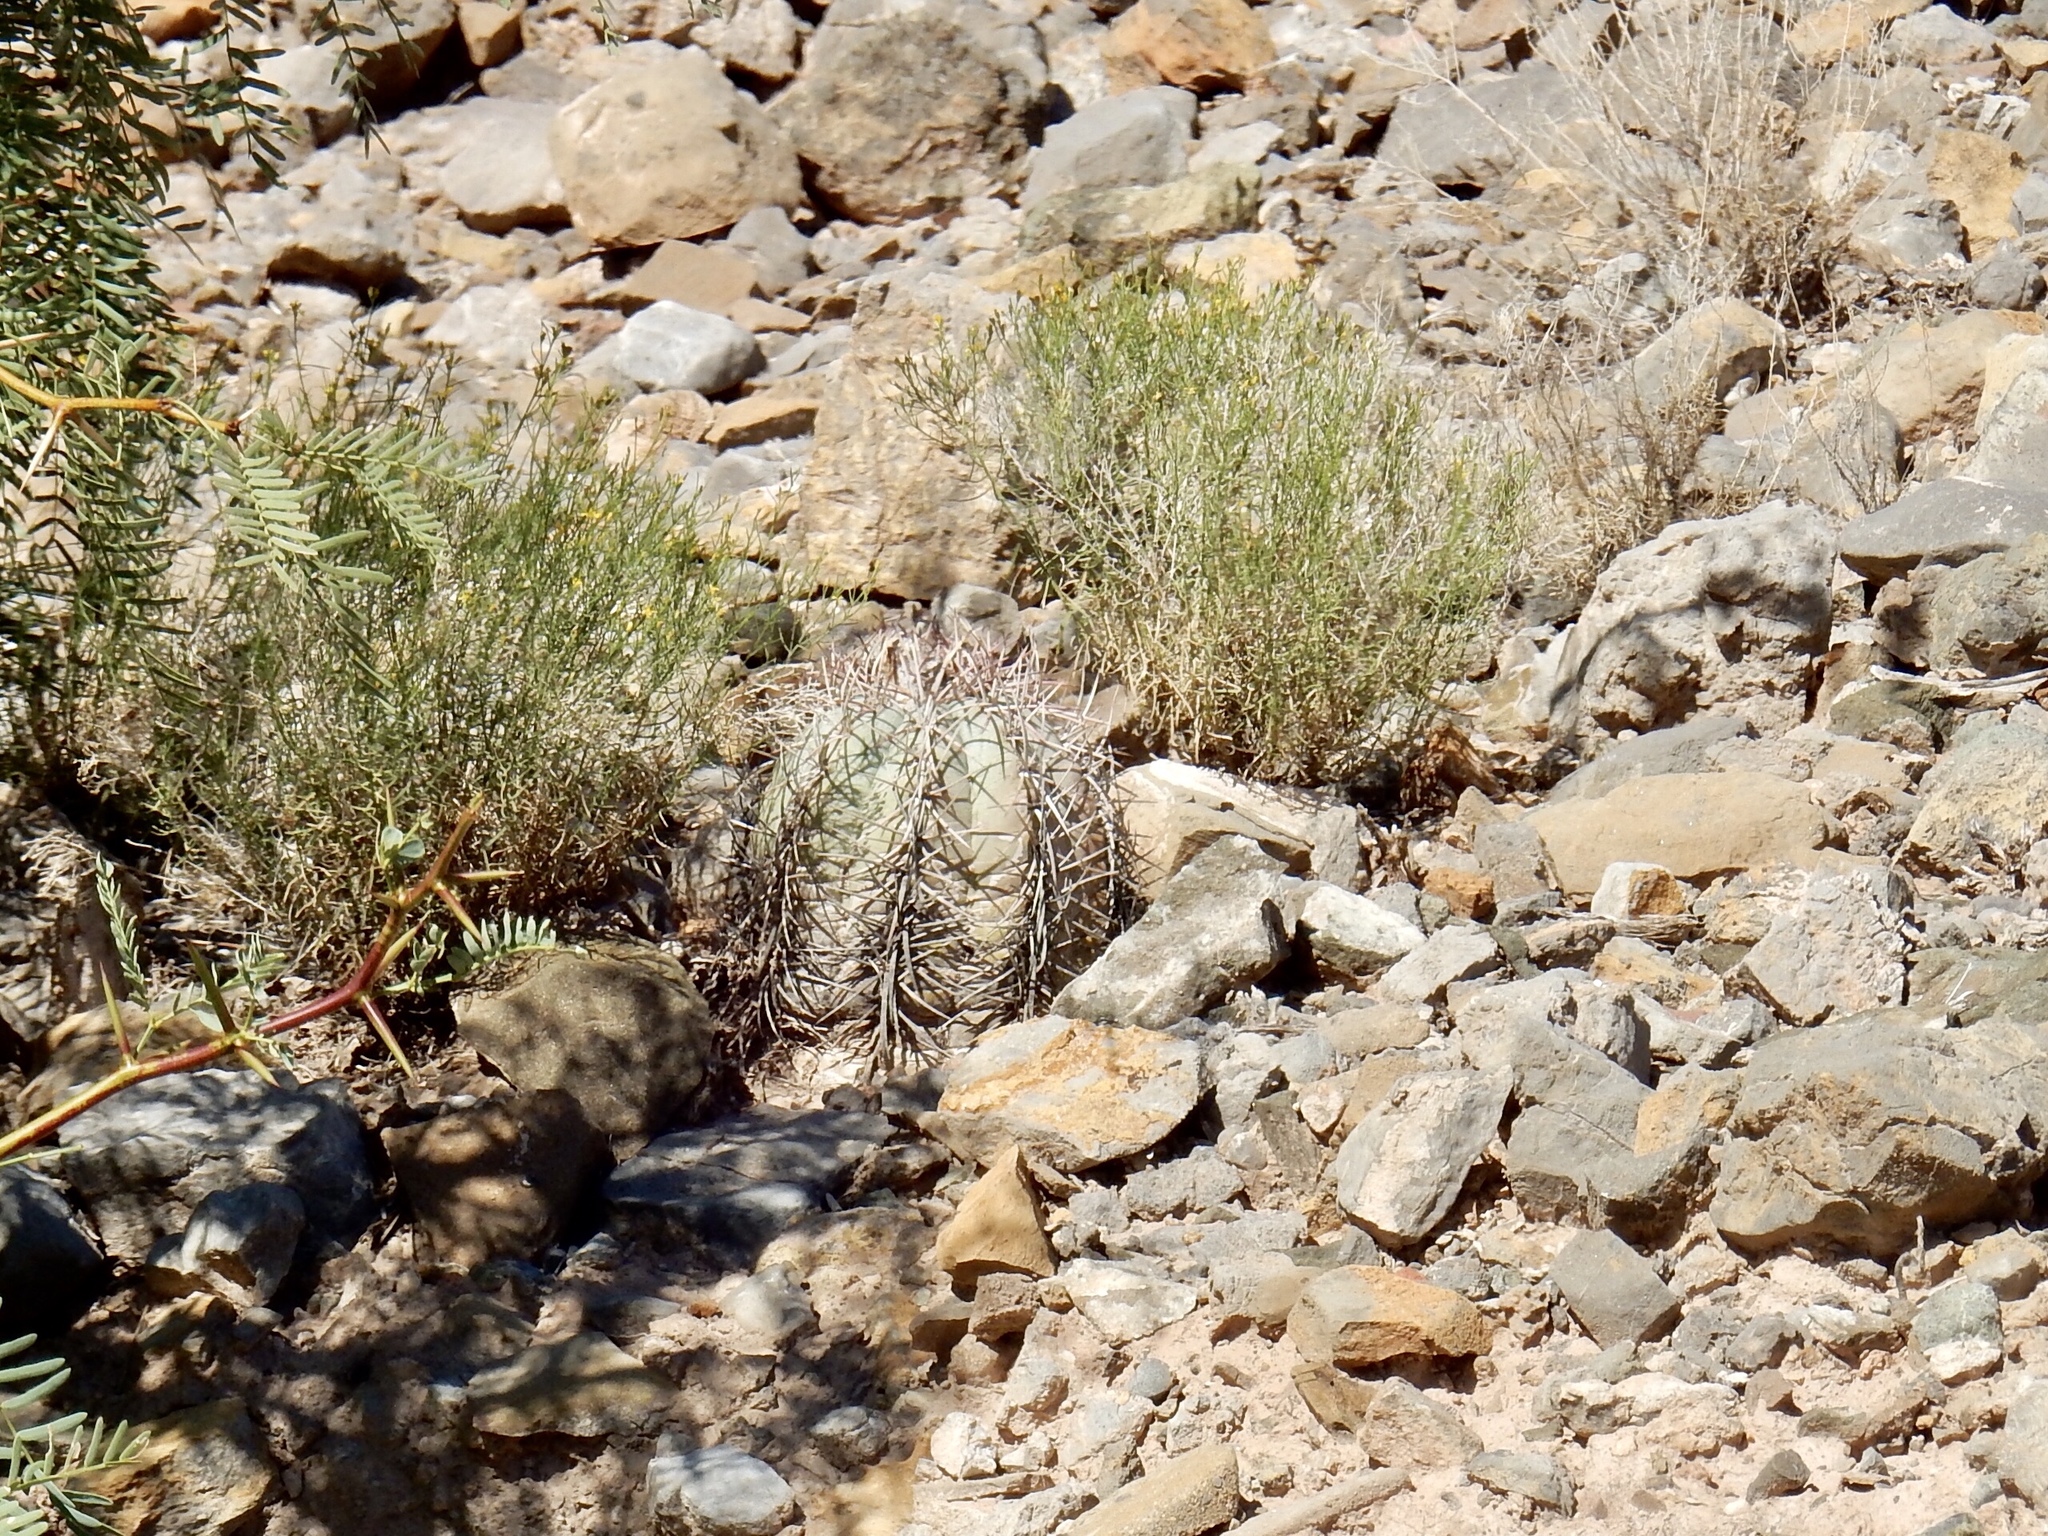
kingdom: Plantae
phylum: Tracheophyta
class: Magnoliopsida
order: Caryophyllales
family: Cactaceae
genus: Echinocactus
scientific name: Echinocactus horizonthalonius
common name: Devilshead
